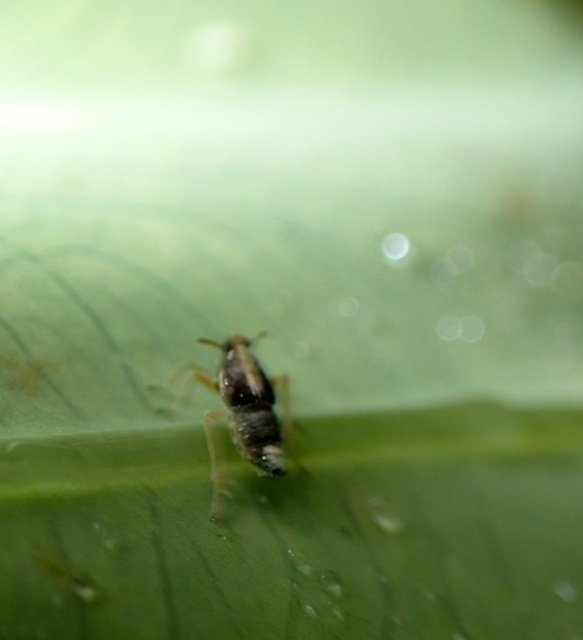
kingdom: Animalia
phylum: Arthropoda
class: Insecta
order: Hemiptera
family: Delphacidae
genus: Tarophagus
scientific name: Tarophagus colocasiae
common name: Taro planthopper
